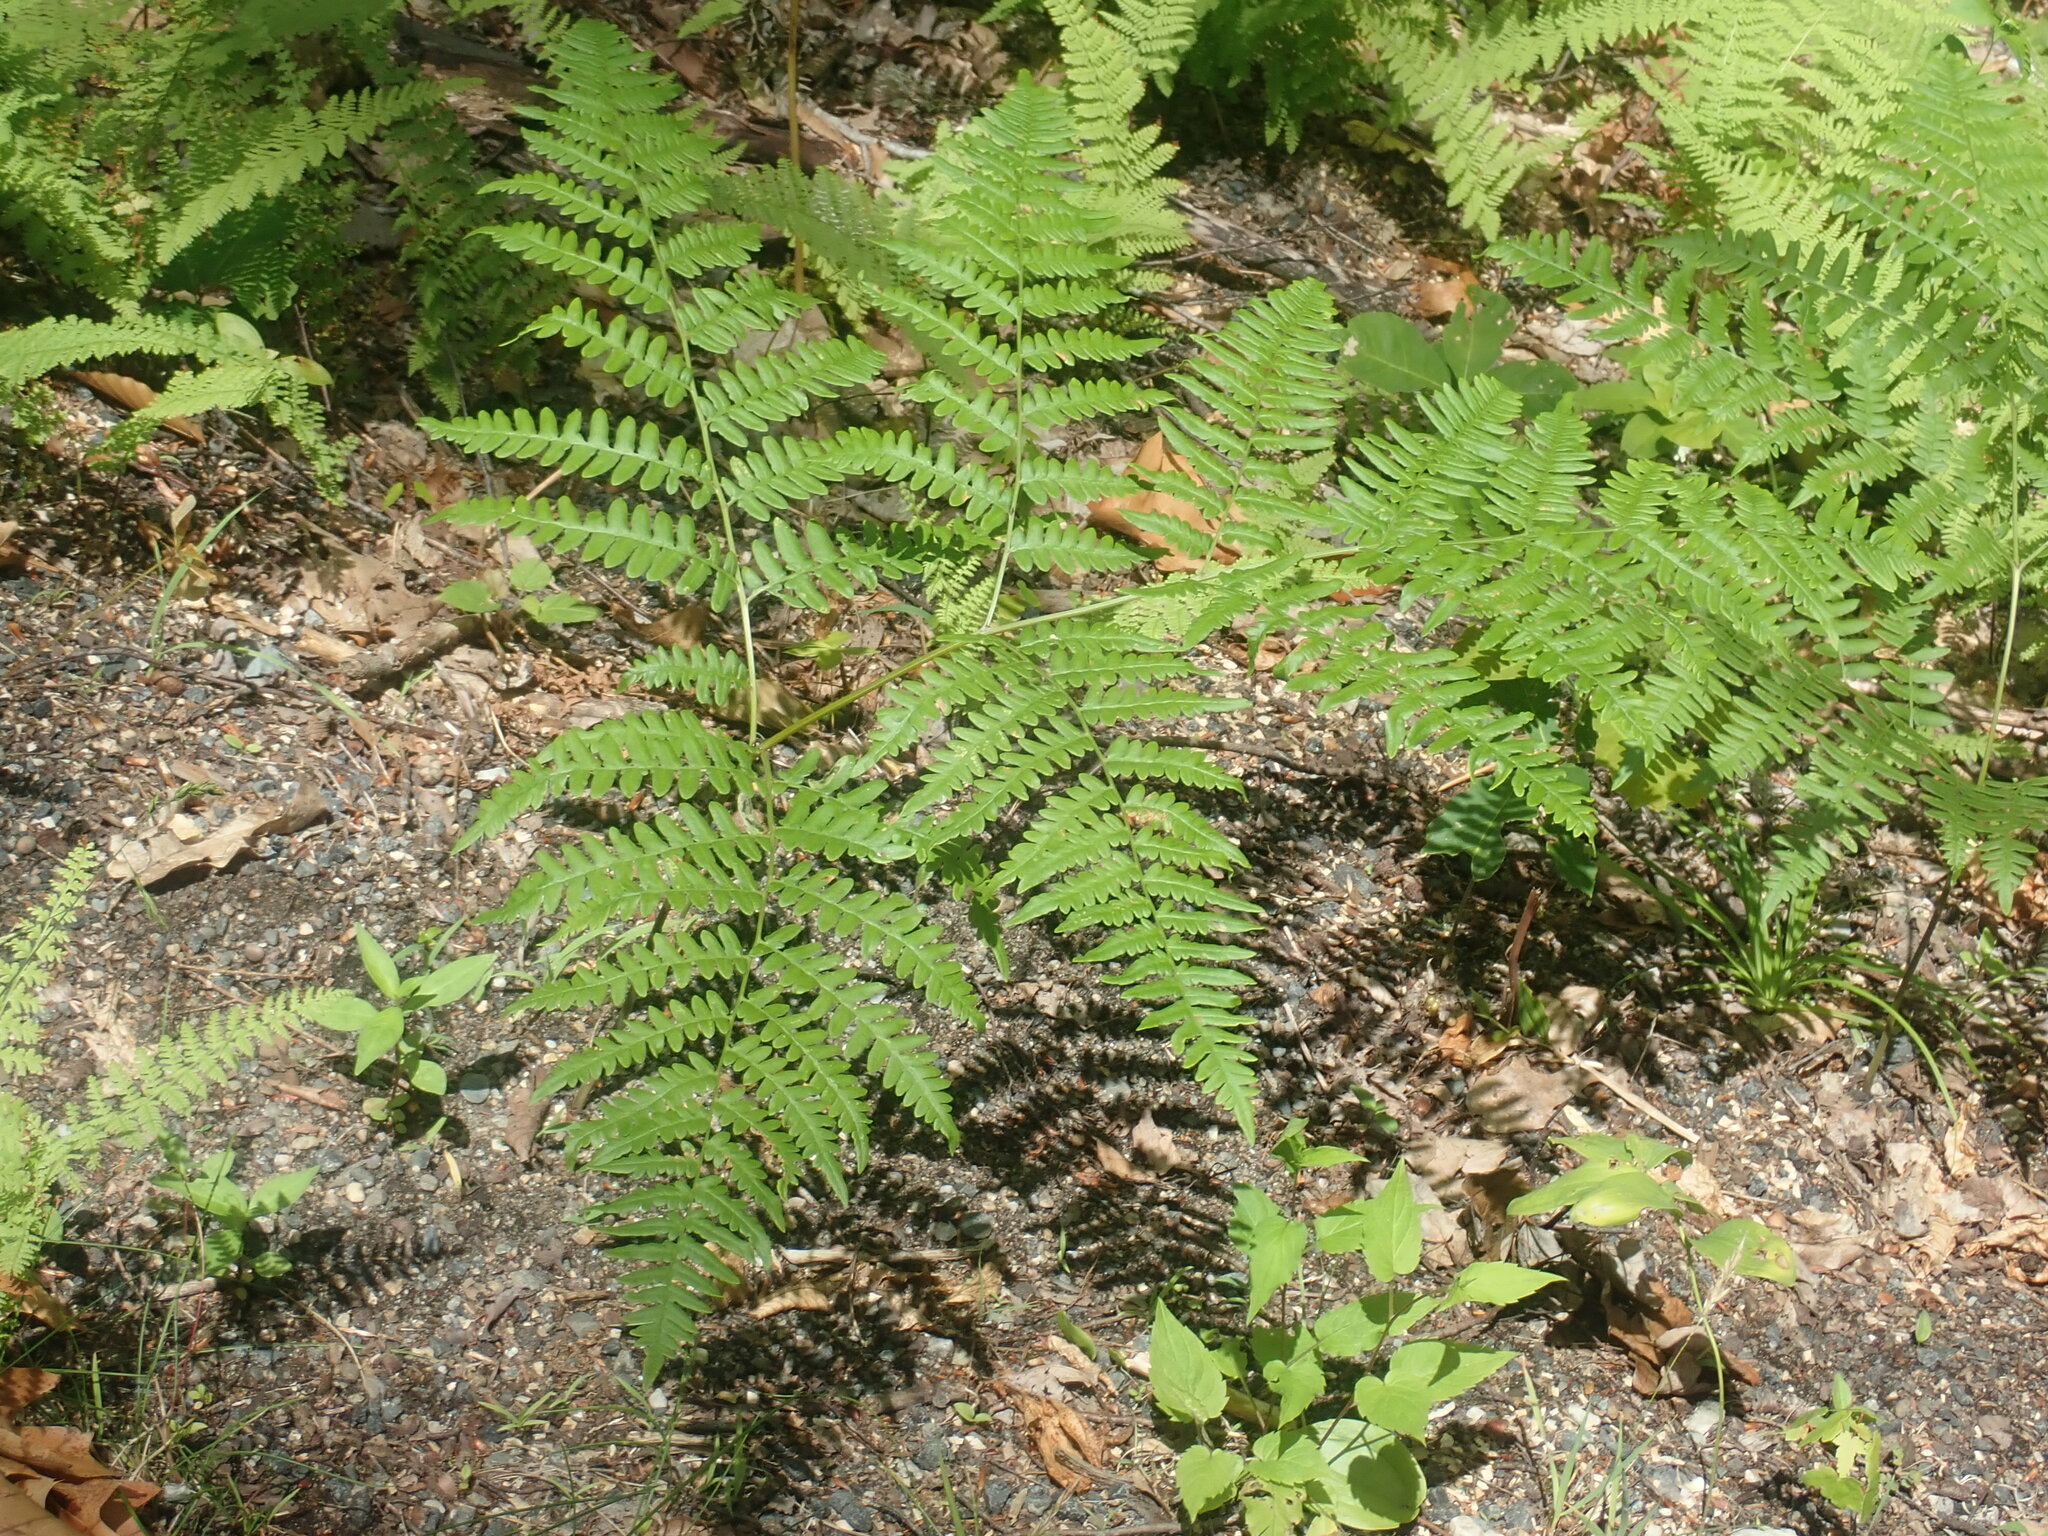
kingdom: Plantae
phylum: Tracheophyta
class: Polypodiopsida
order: Polypodiales
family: Dennstaedtiaceae
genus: Pteridium
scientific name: Pteridium aquilinum
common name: Bracken
